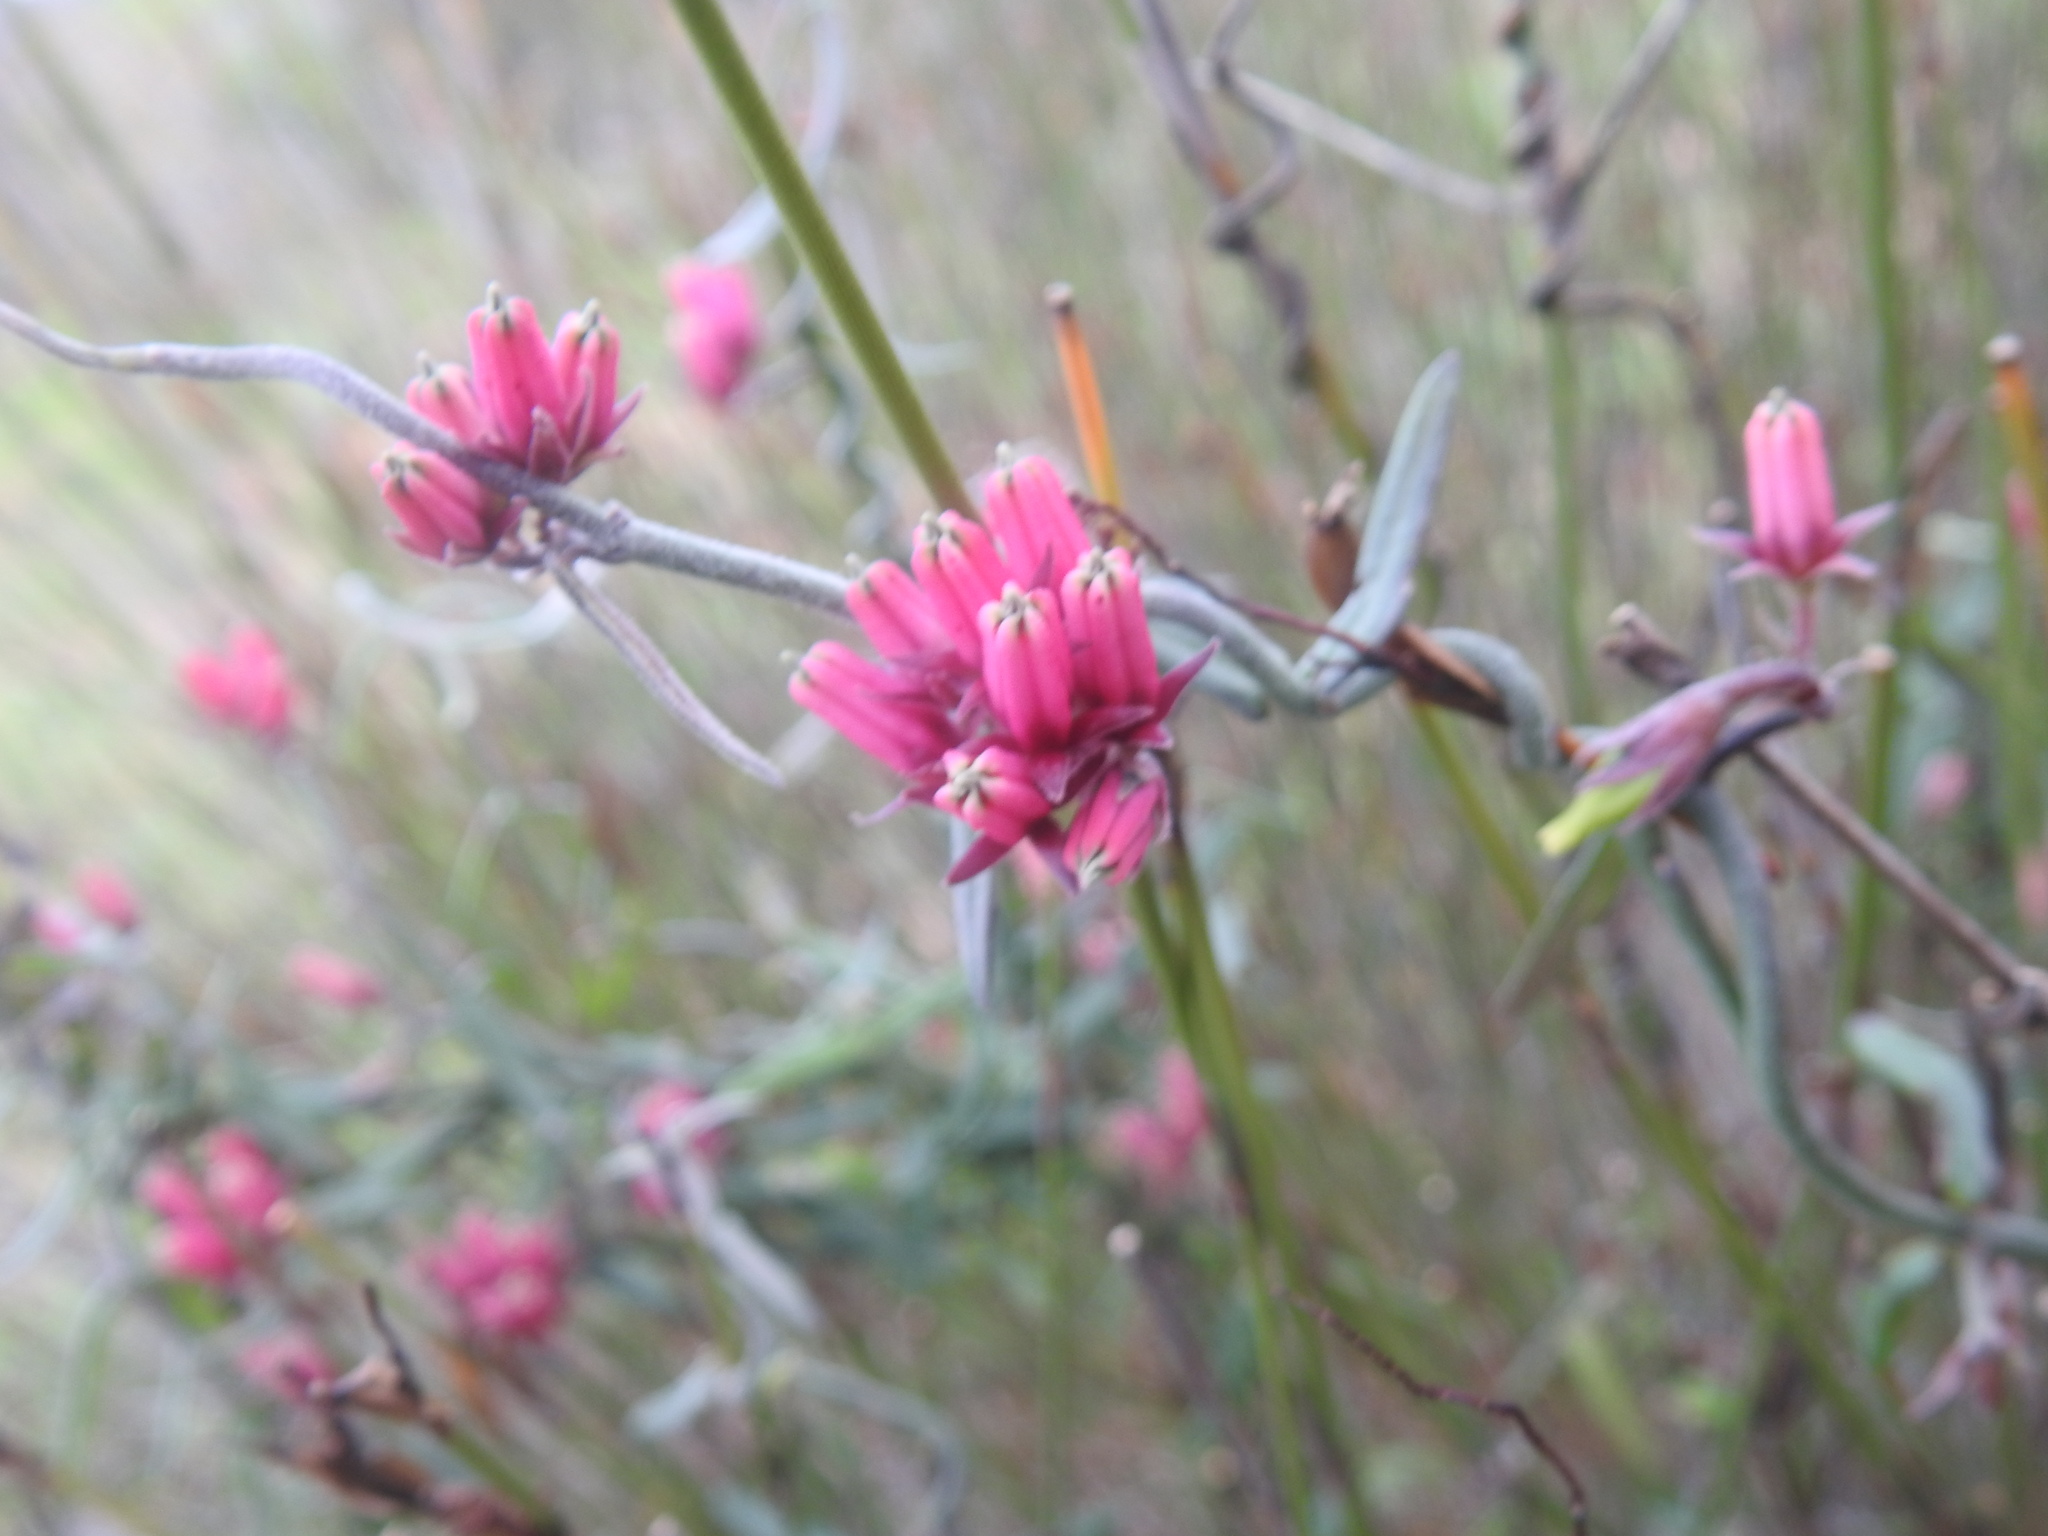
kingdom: Plantae
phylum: Tracheophyta
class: Magnoliopsida
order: Gentianales
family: Apocynaceae
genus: Microloma
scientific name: Microloma sagittatum
